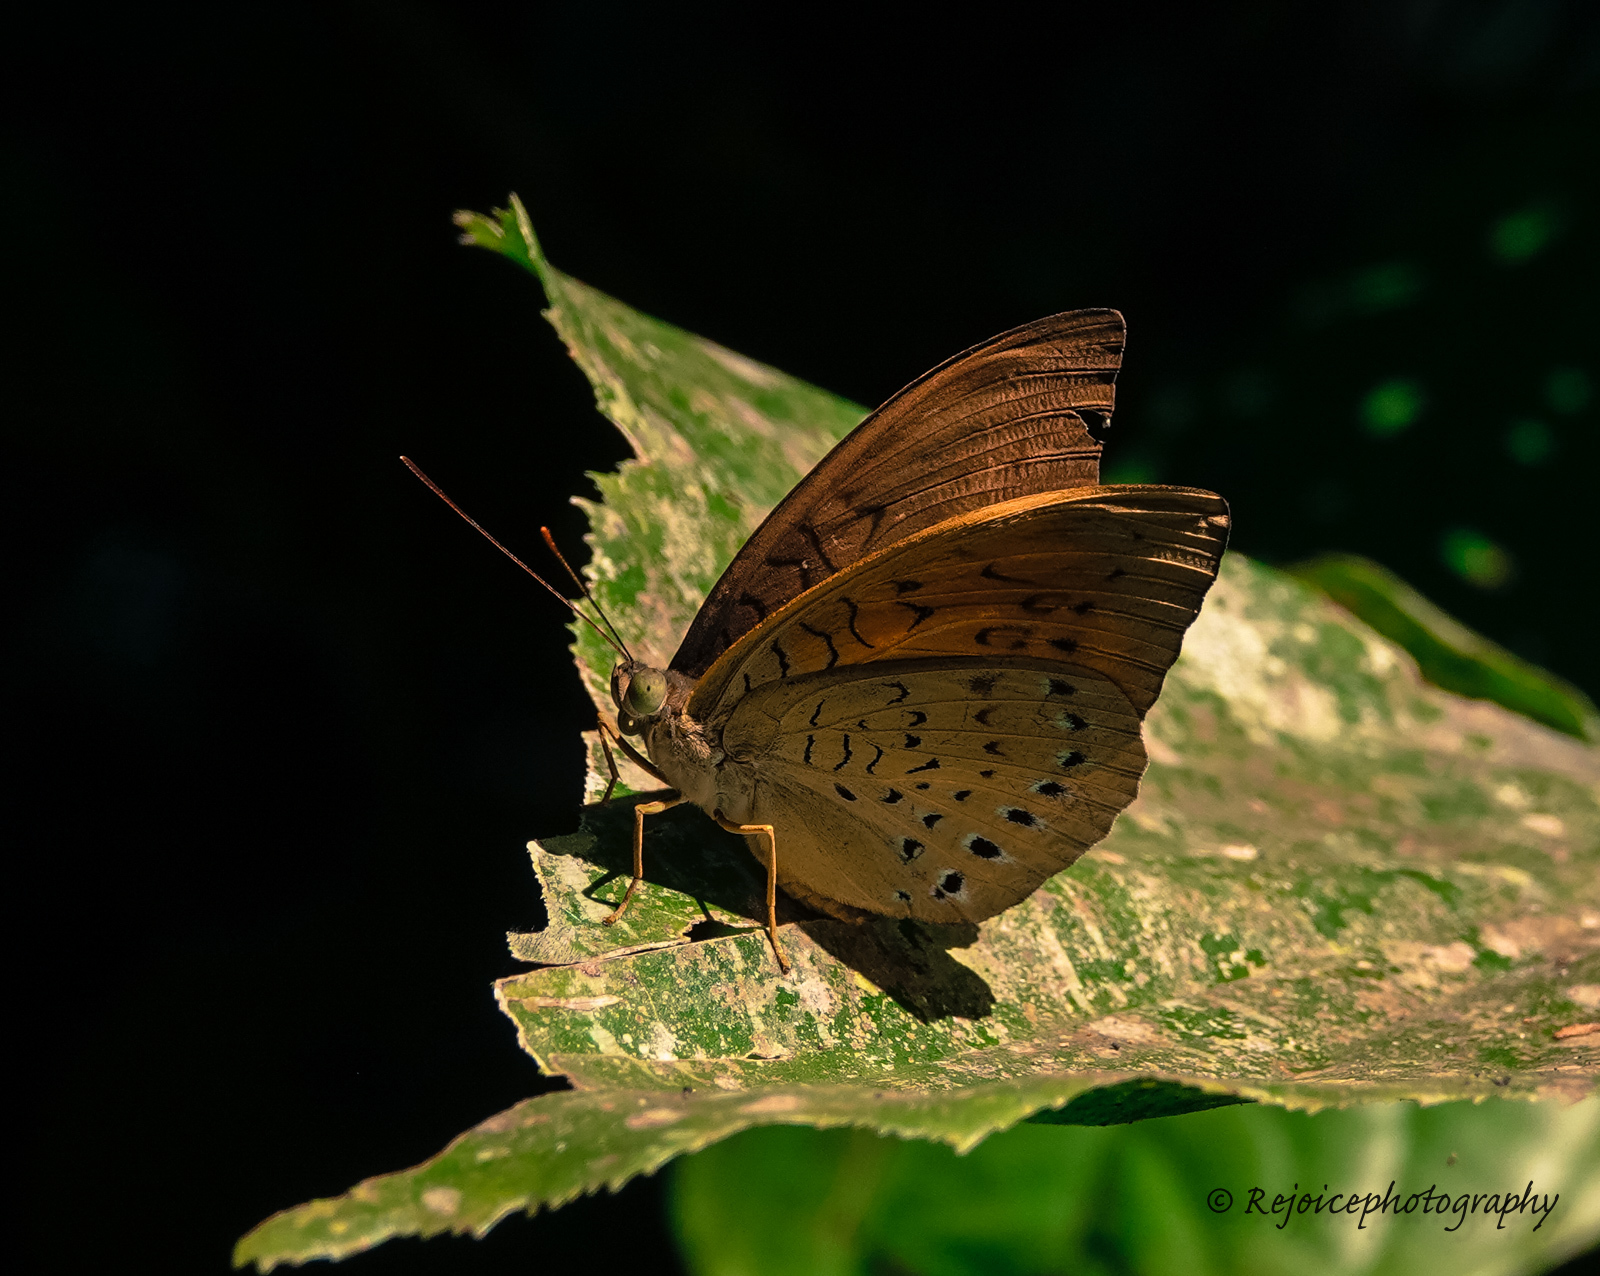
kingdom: Animalia
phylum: Arthropoda
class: Insecta
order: Lepidoptera
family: Nymphalidae
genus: Tanaecia
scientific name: Tanaecia julii
